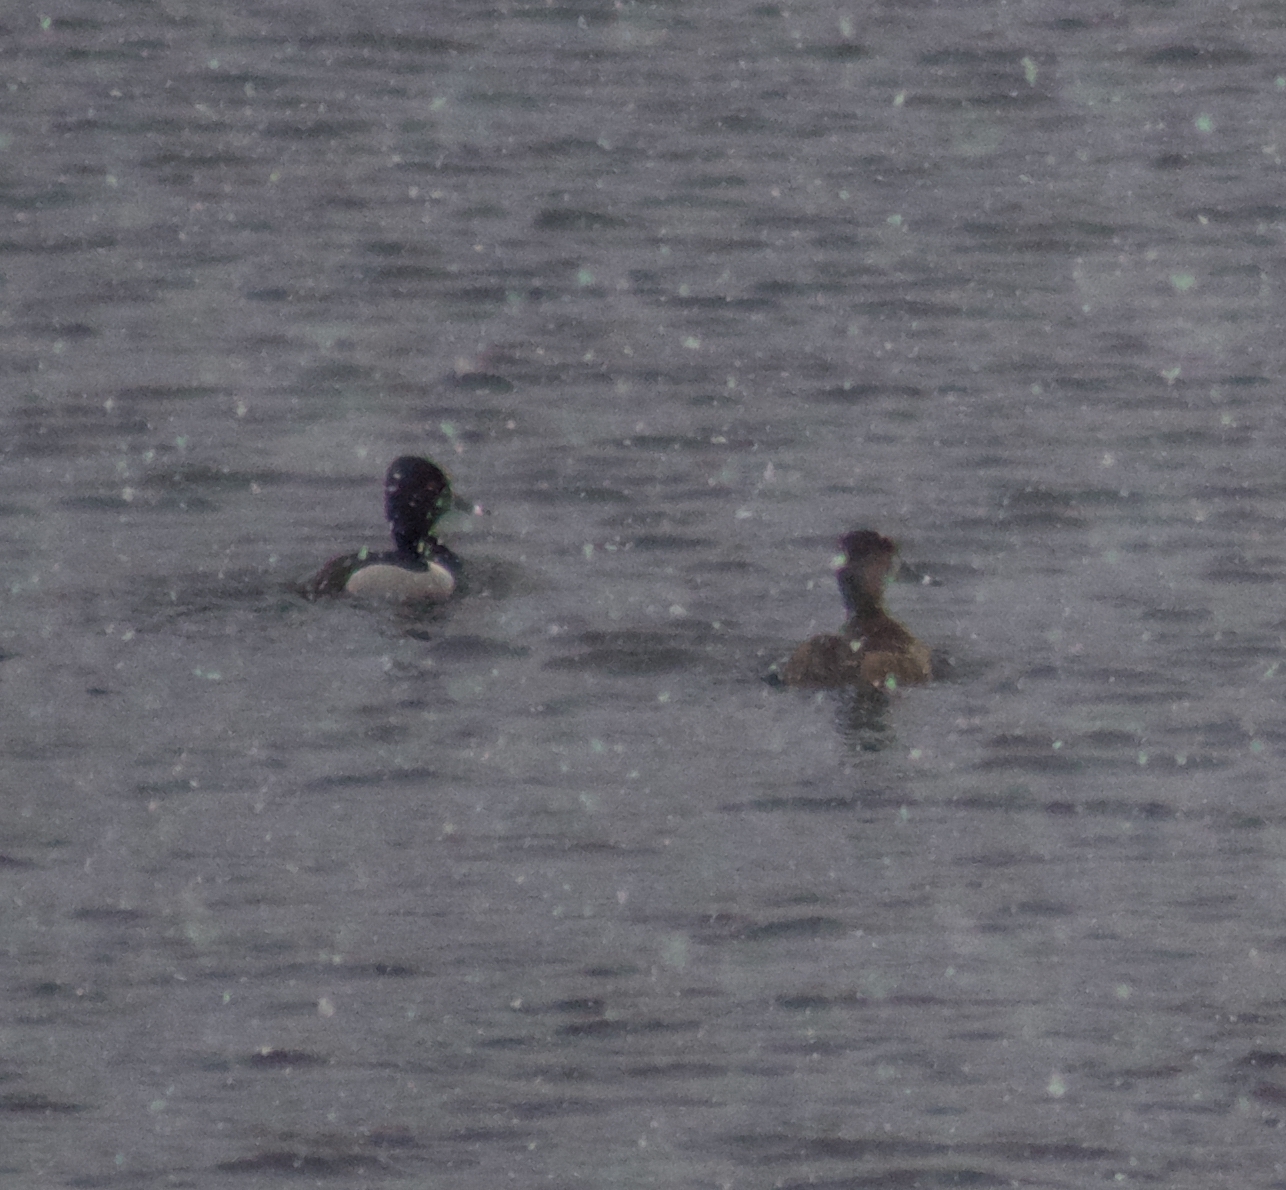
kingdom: Animalia
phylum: Chordata
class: Aves
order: Anseriformes
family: Anatidae
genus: Aythya
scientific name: Aythya collaris
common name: Ring-necked duck
